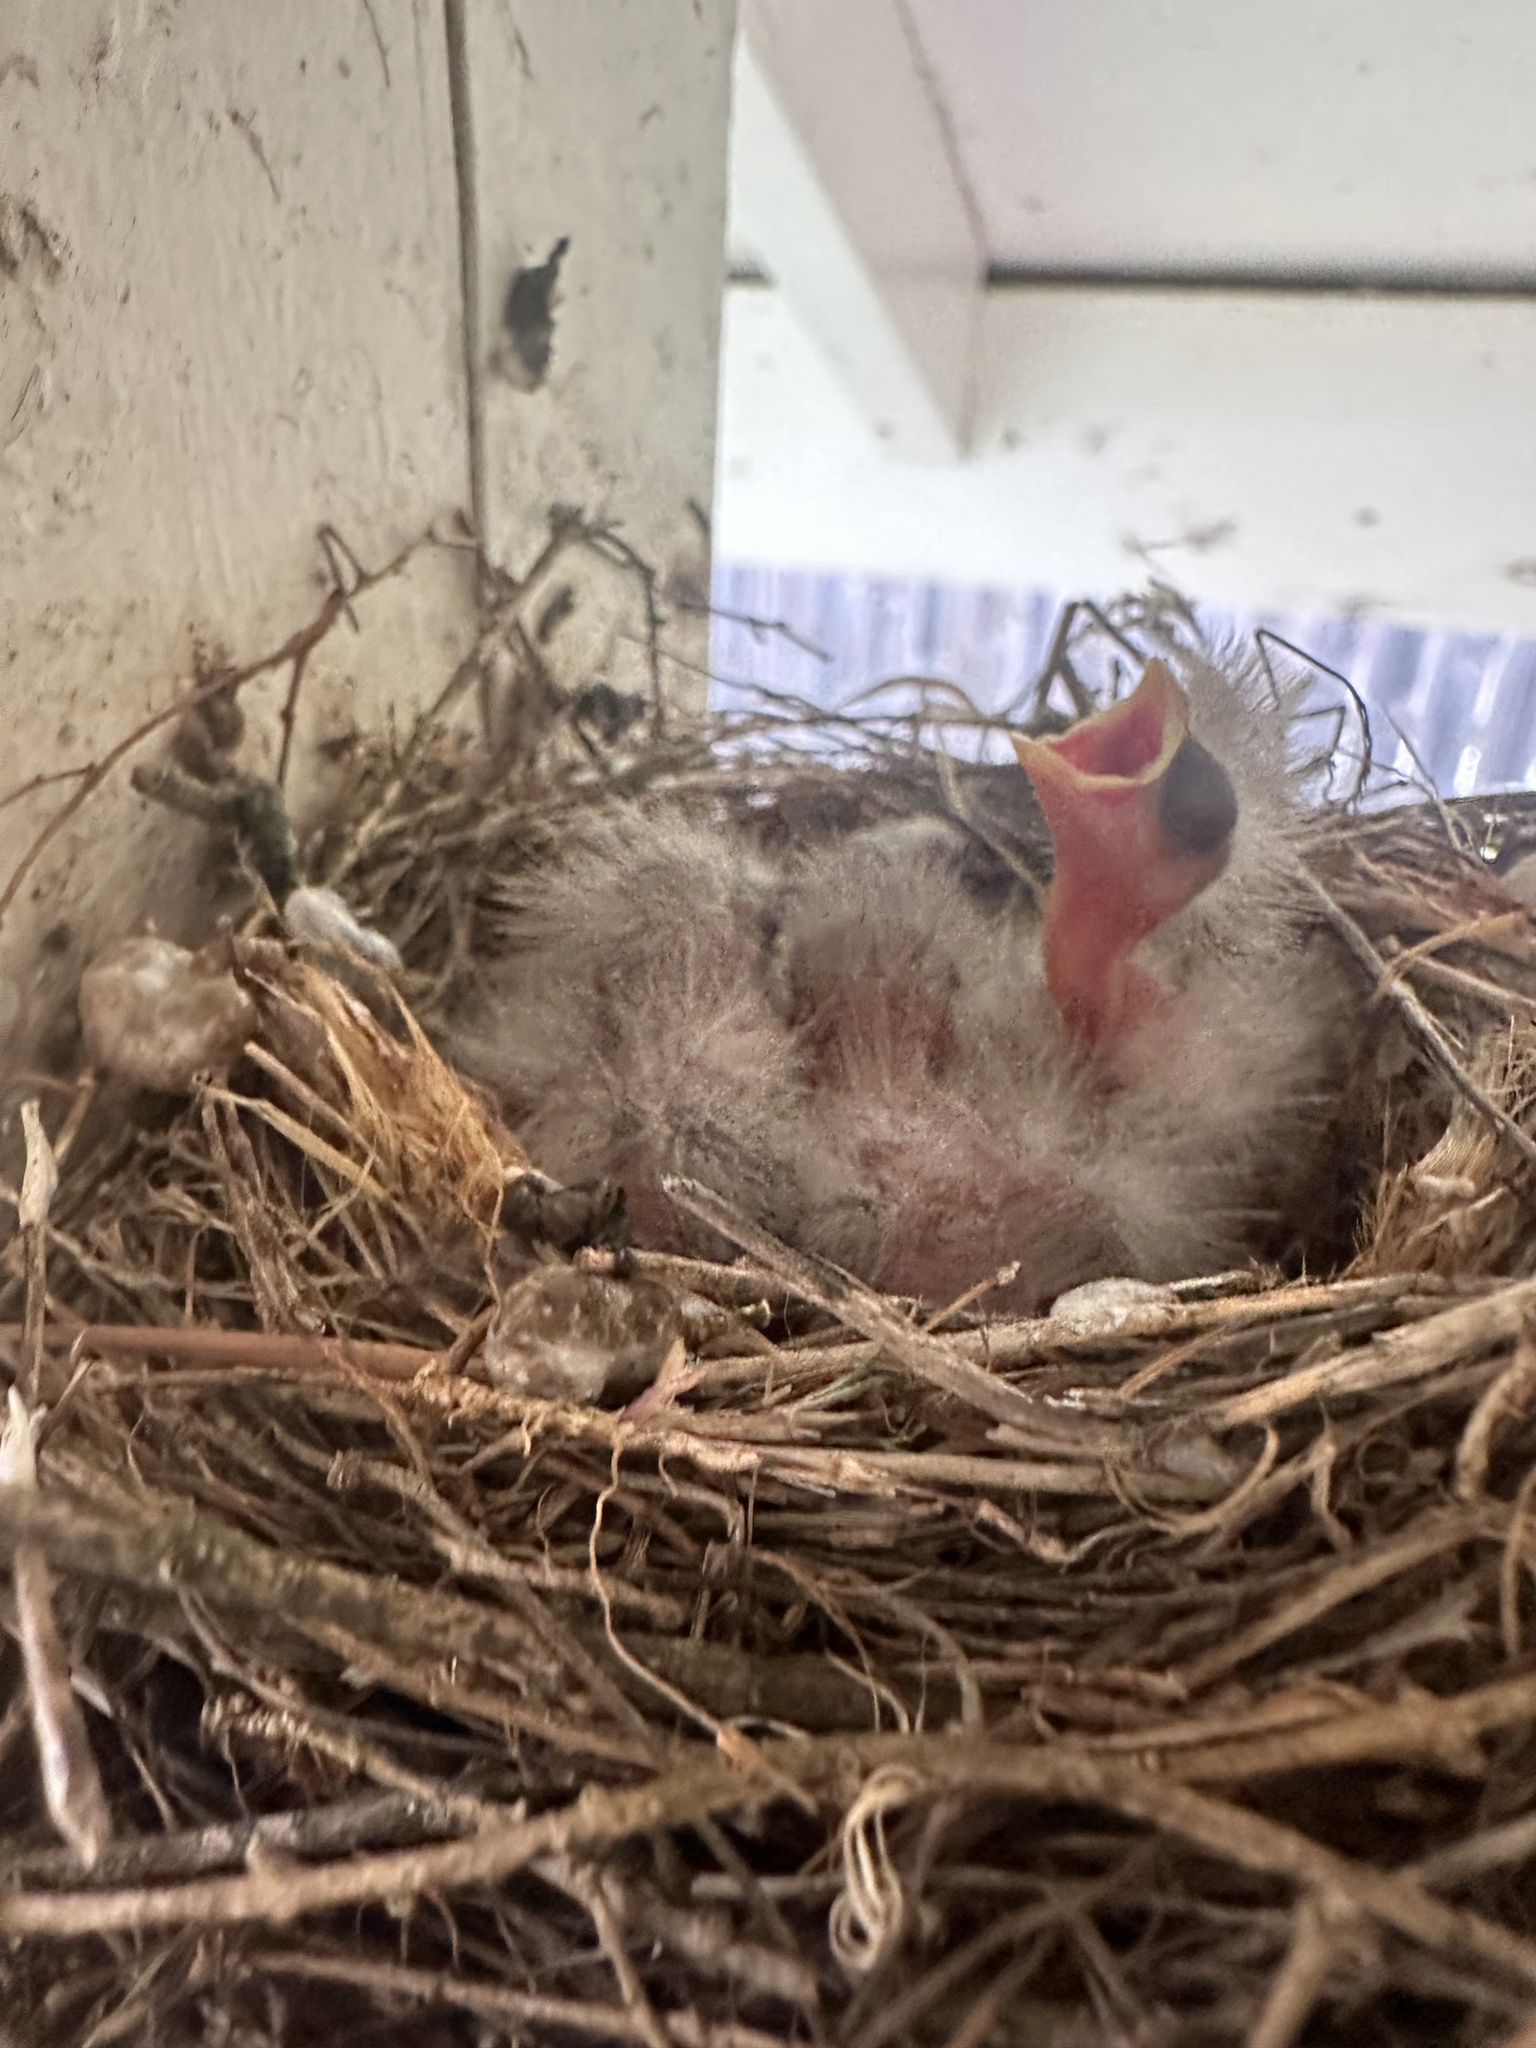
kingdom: Animalia
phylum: Chordata
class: Aves
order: Passeriformes
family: Fringillidae
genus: Haemorhous
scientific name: Haemorhous mexicanus
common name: House finch
